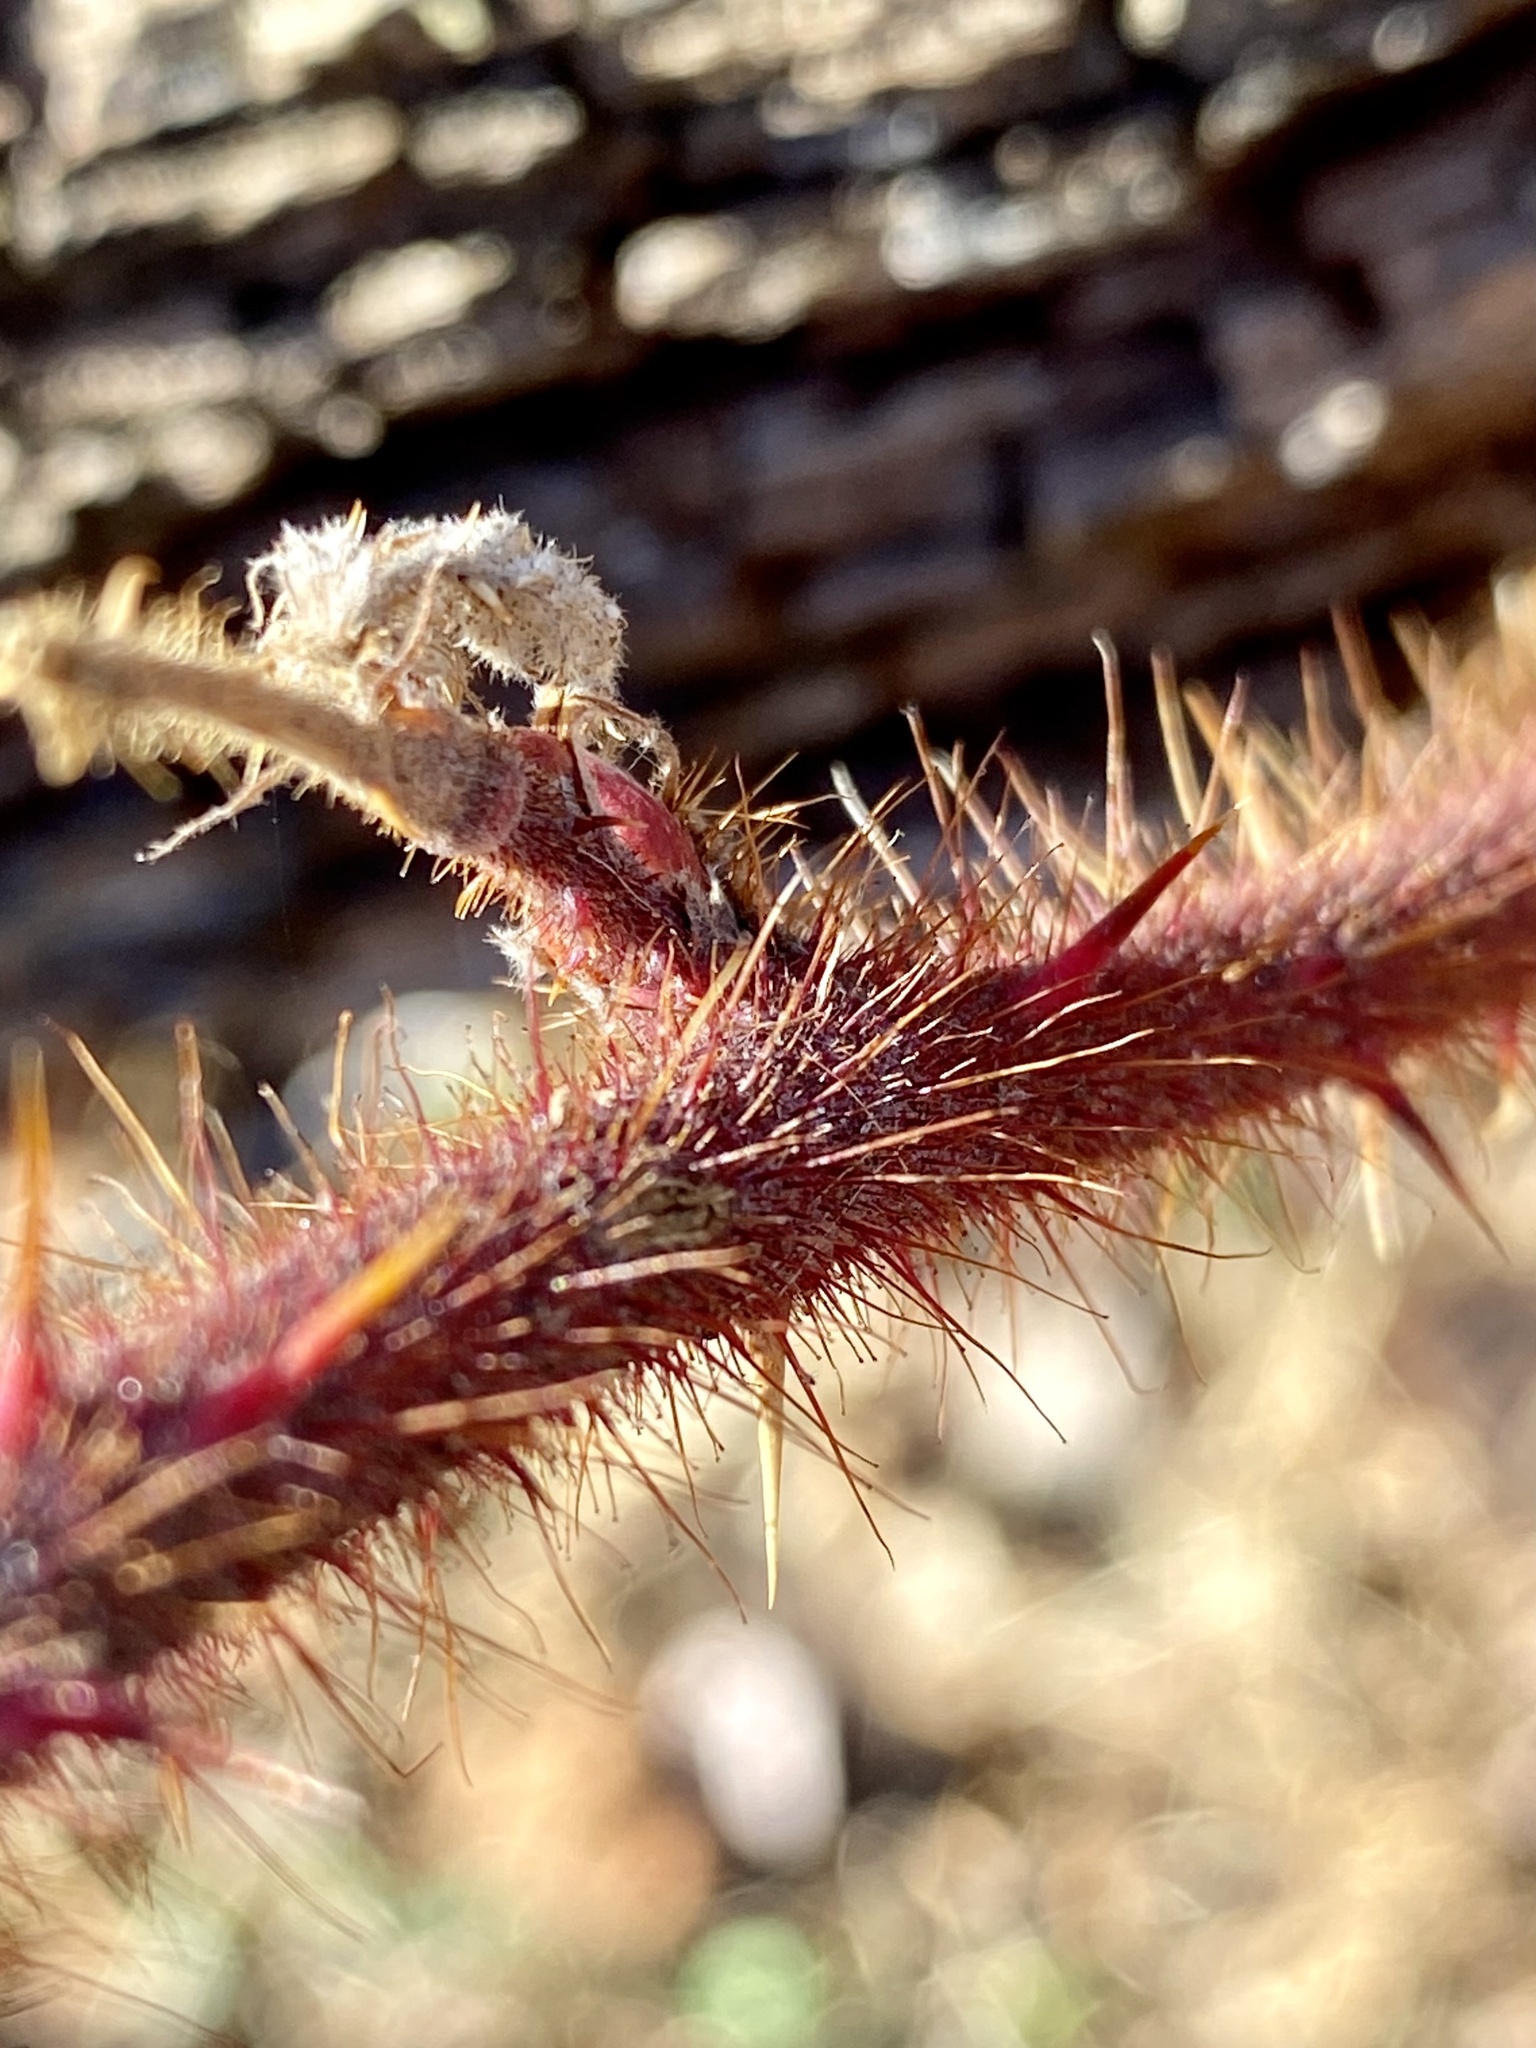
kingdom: Plantae
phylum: Tracheophyta
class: Magnoliopsida
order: Rosales
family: Rosaceae
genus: Rubus
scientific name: Rubus phoenicolasius
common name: Japanese wineberry
